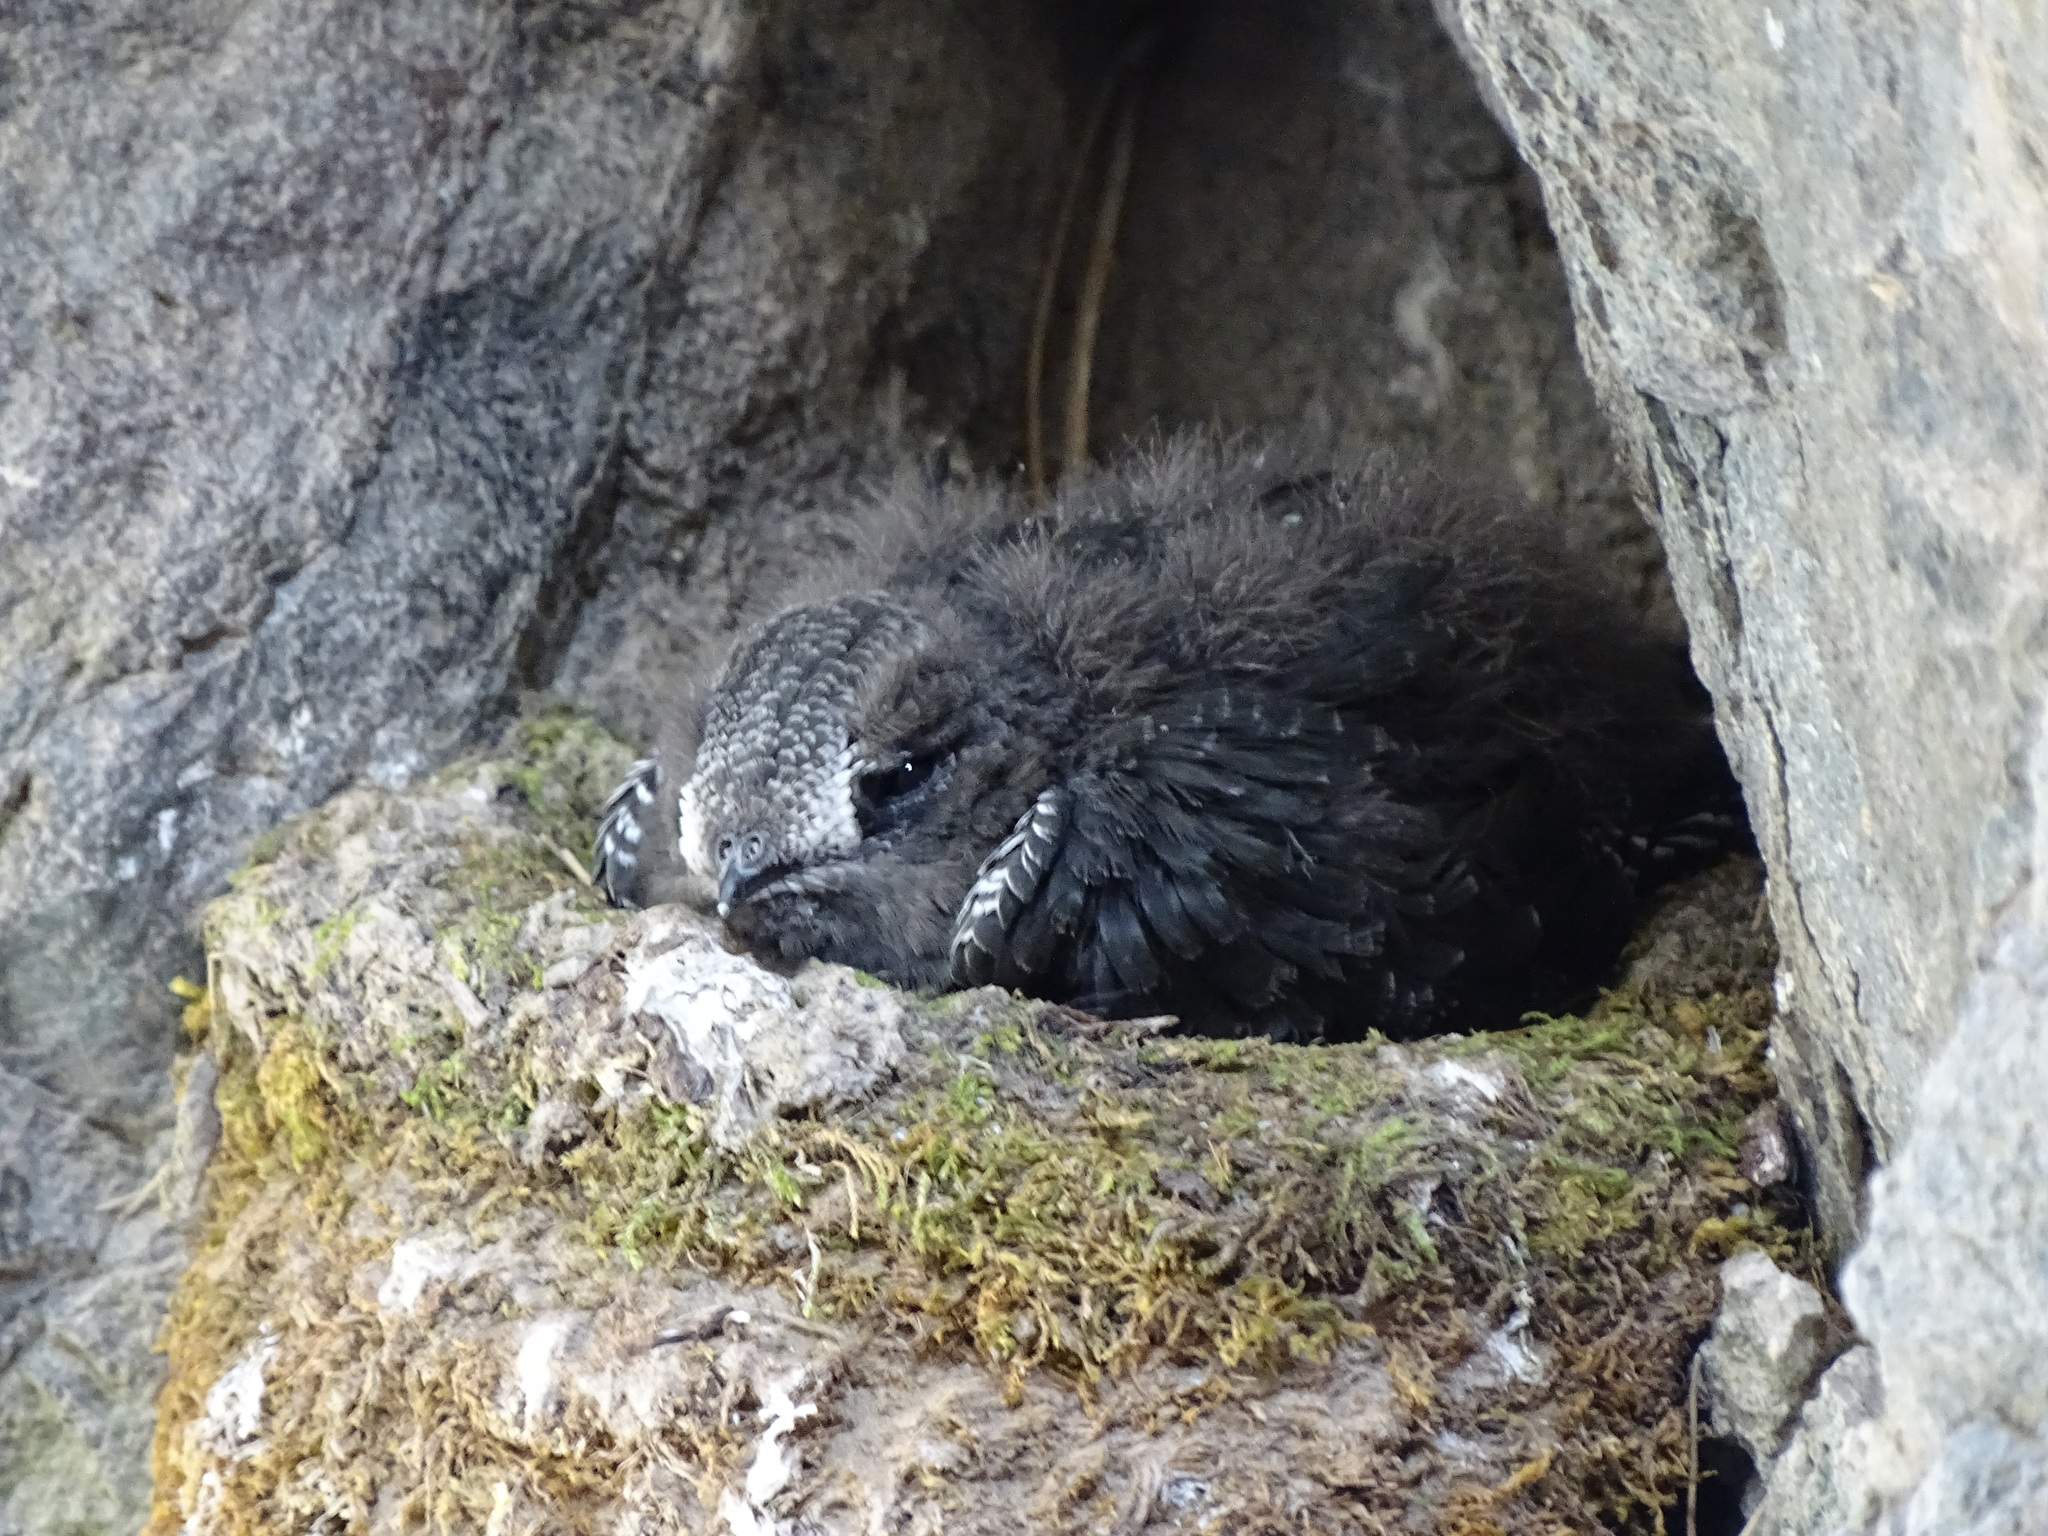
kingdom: Animalia
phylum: Chordata
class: Aves
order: Apodiformes
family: Apodidae
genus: Cypseloides
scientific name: Cypseloides niger
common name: Black swift
